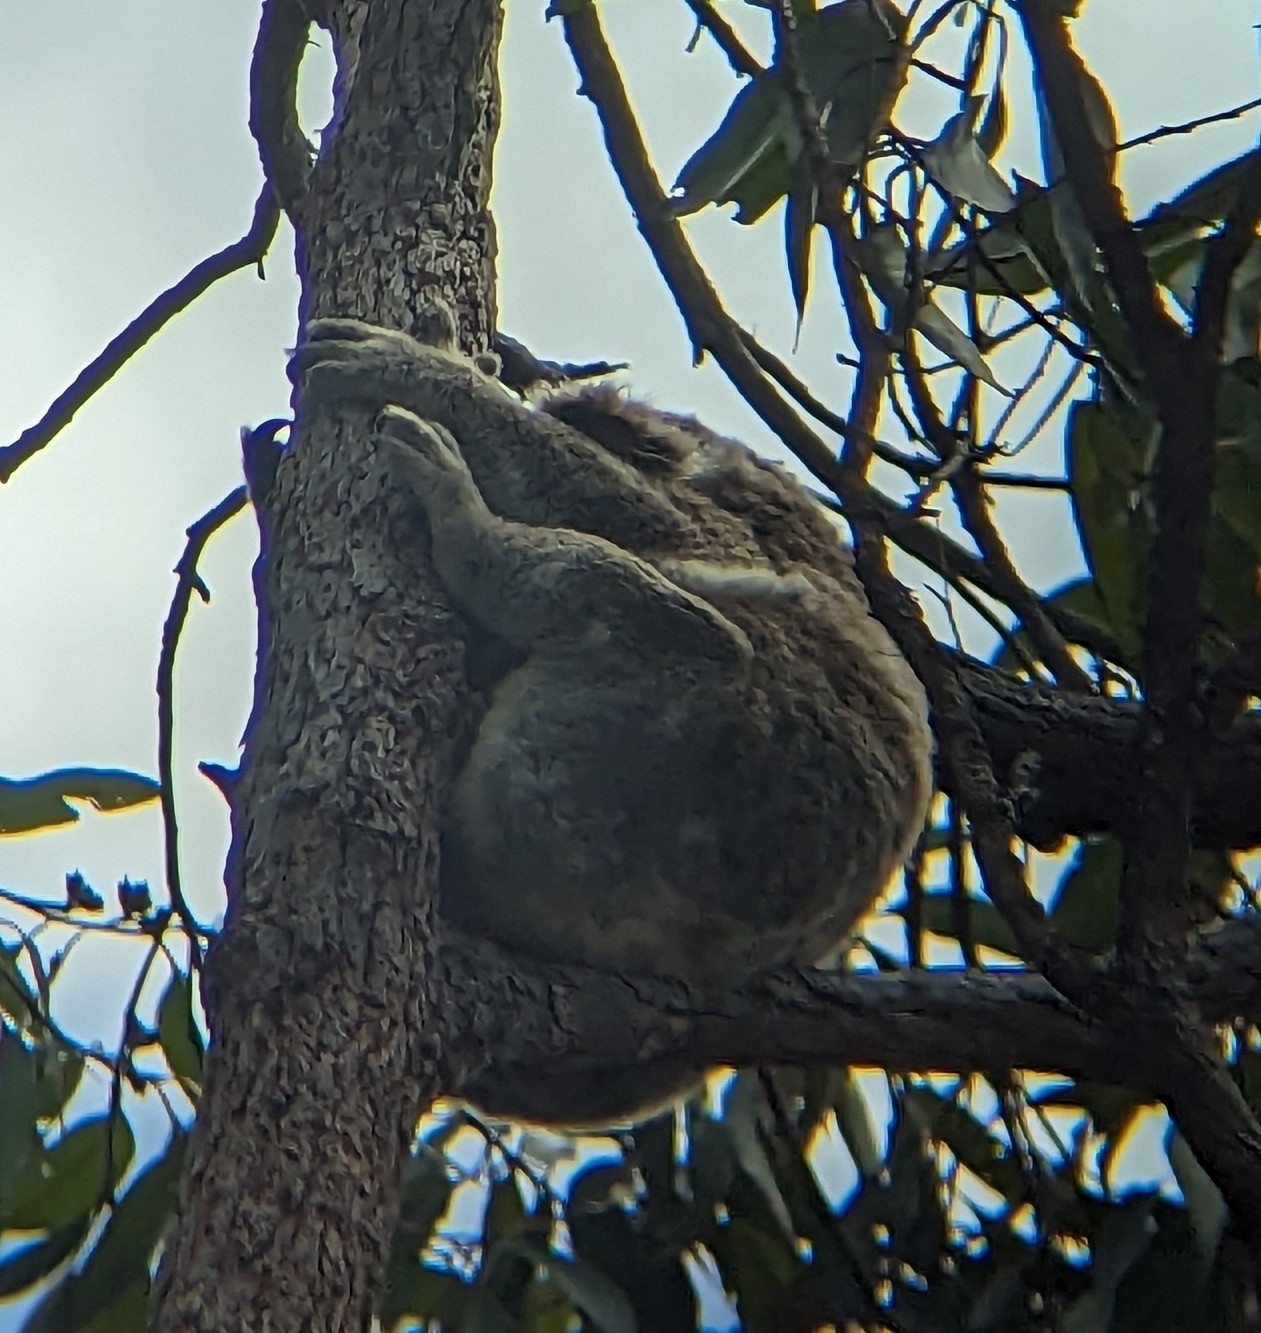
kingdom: Animalia
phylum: Chordata
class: Mammalia
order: Diprotodontia
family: Phascolarctidae
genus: Phascolarctos
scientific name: Phascolarctos cinereus
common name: Koala
